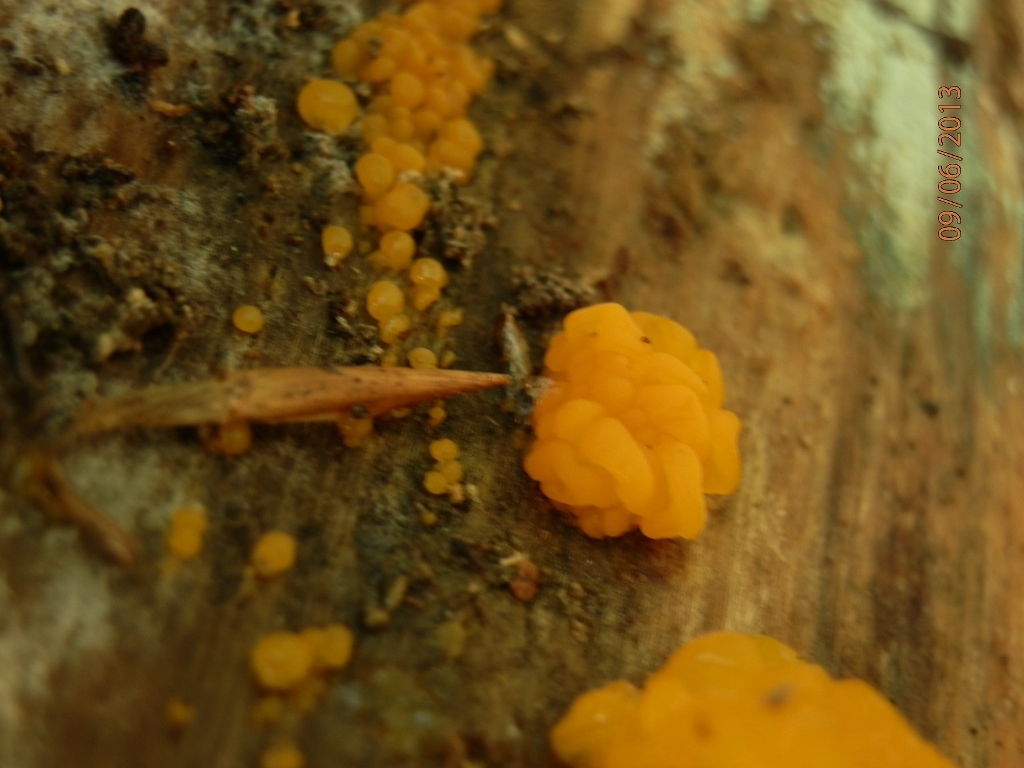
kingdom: Fungi
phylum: Basidiomycota
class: Tremellomycetes
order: Tremellales
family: Tremellaceae
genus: Tremella
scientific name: Tremella mesenterica
